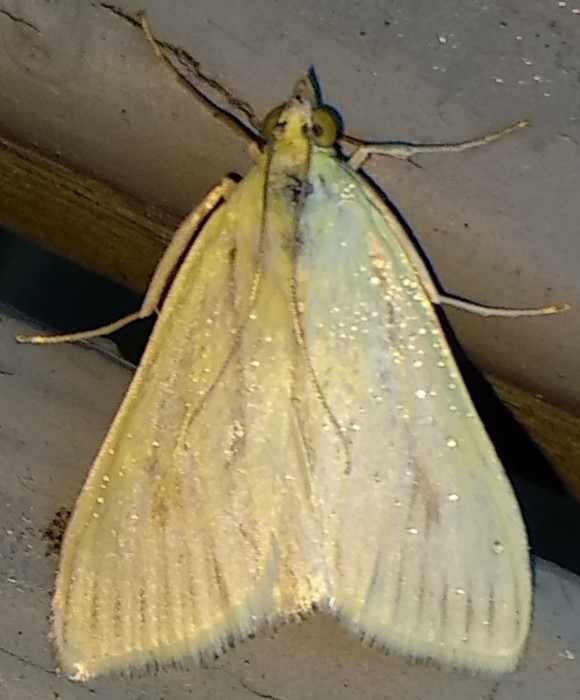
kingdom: Animalia
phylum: Arthropoda
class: Insecta
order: Lepidoptera
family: Crambidae
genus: Sitochroa
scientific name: Sitochroa palealis
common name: Greenish-yellow sitochroa moth
